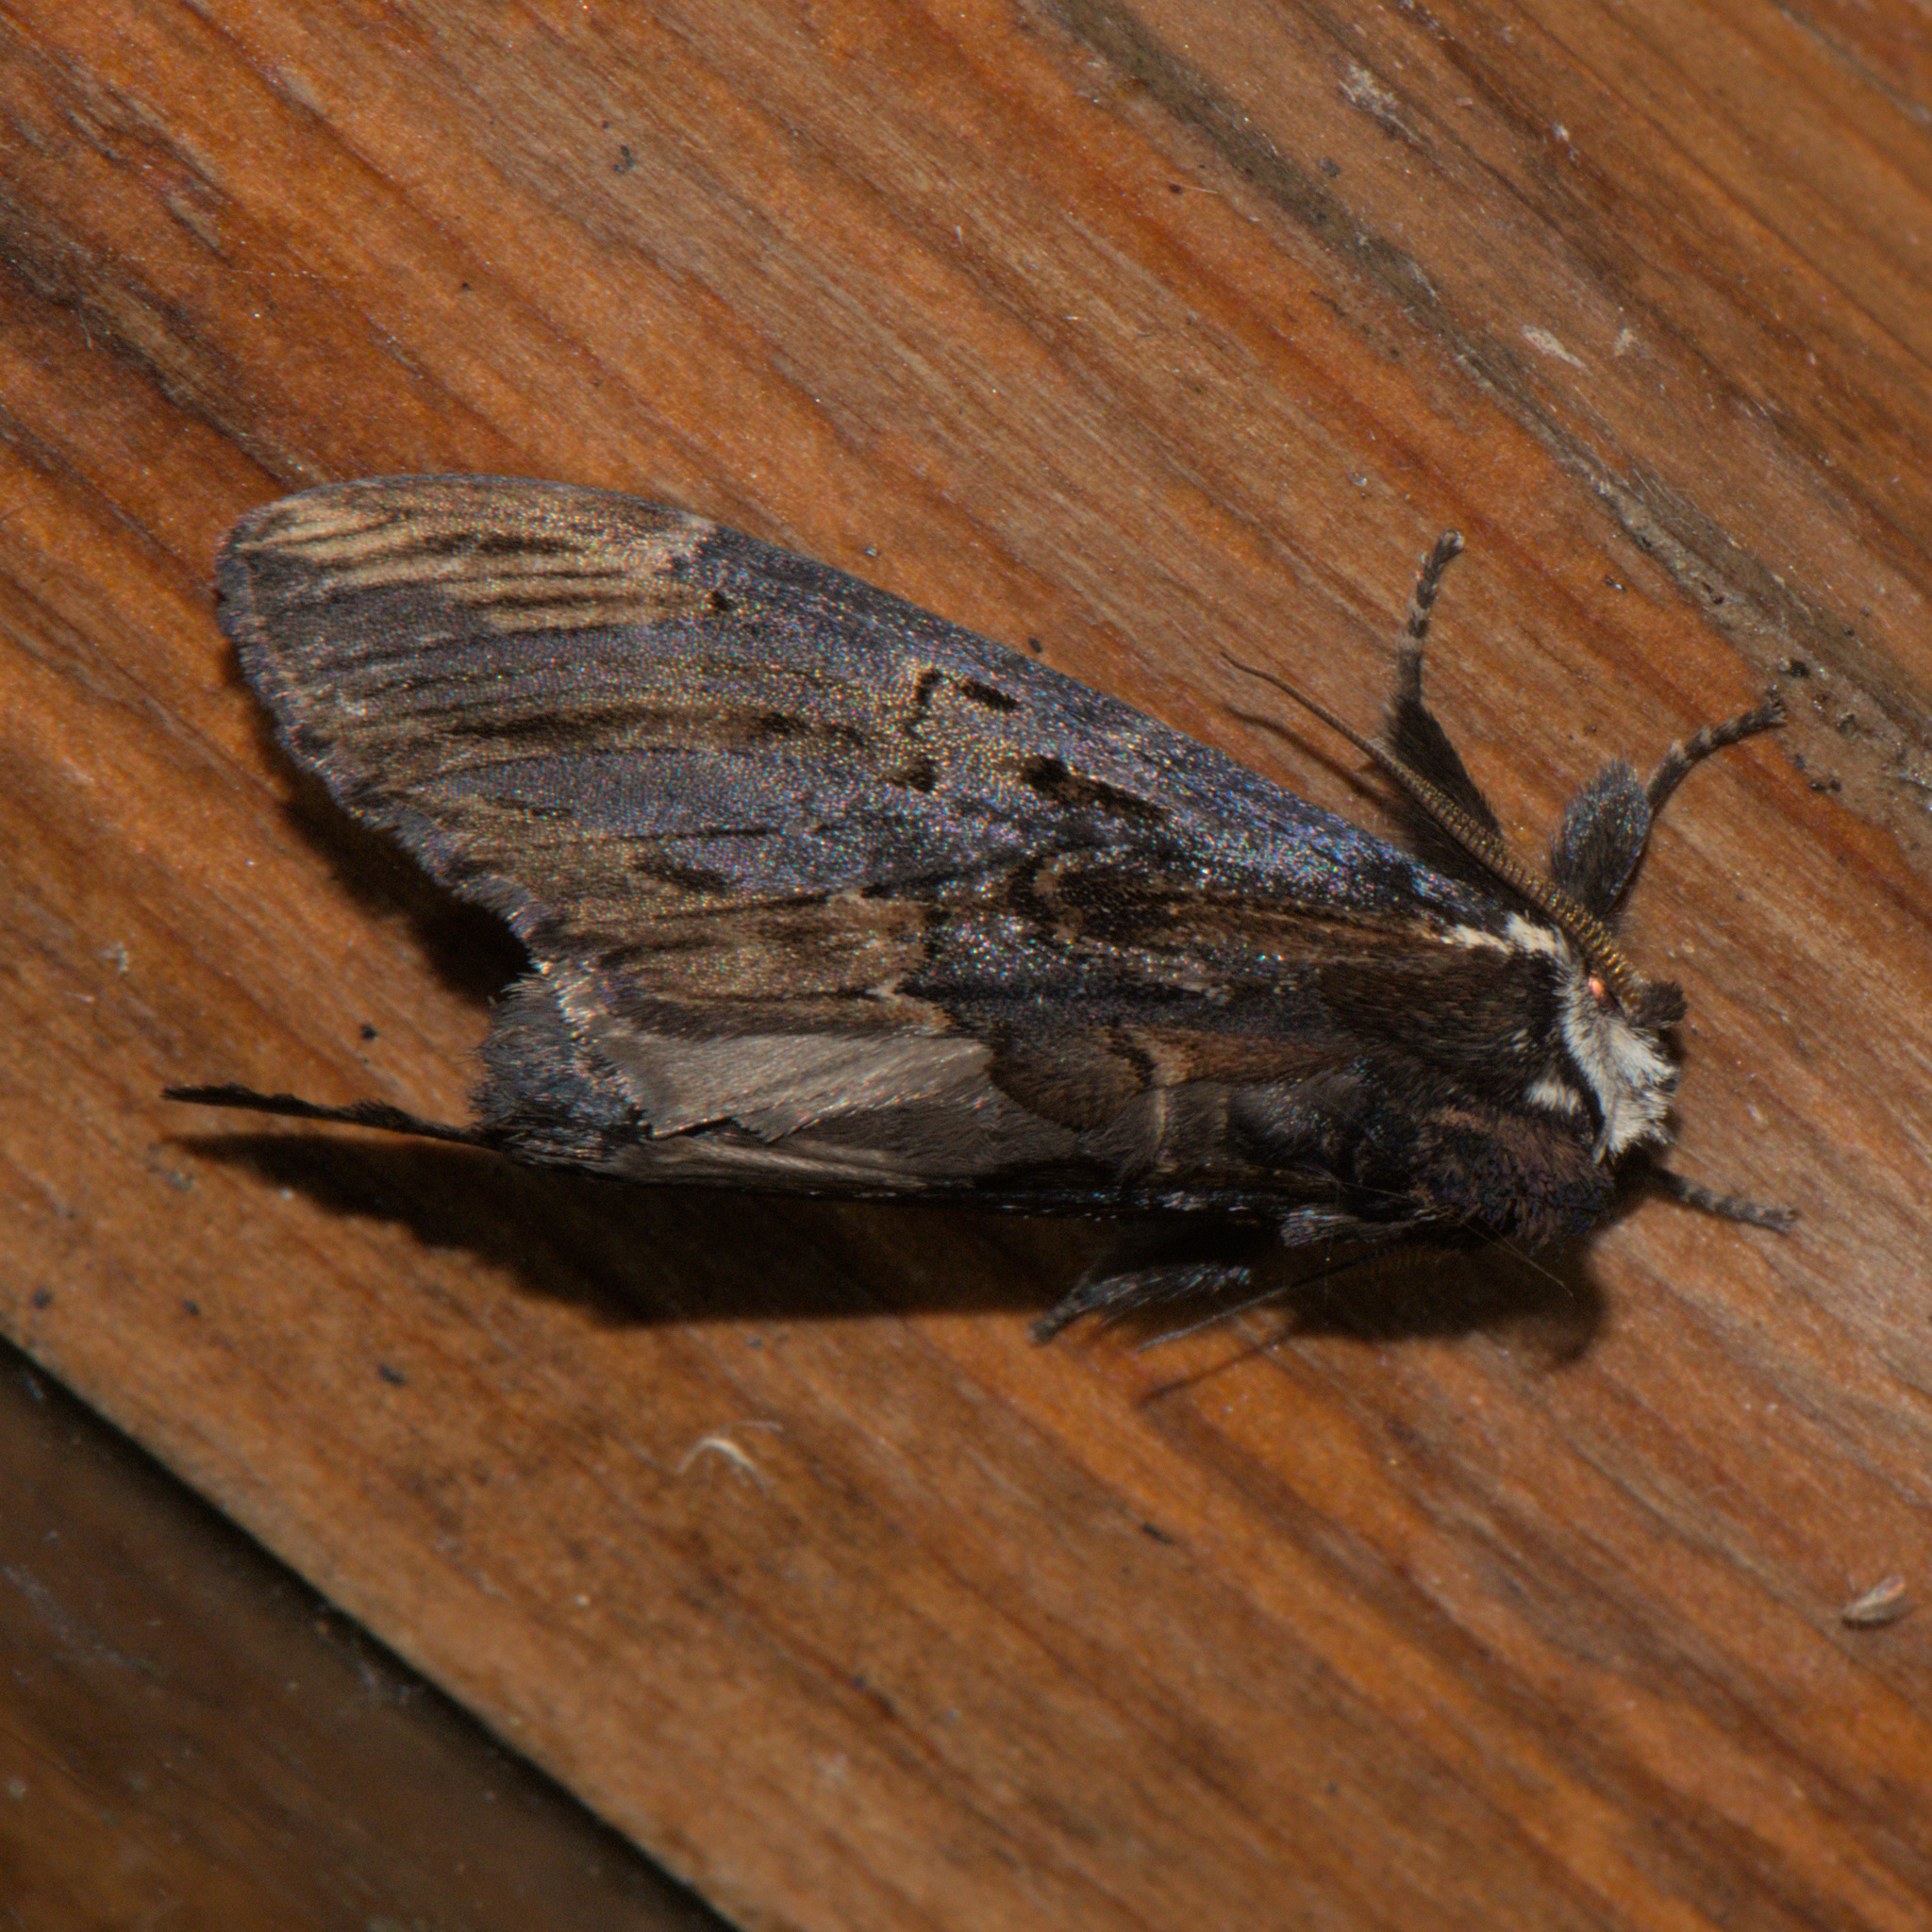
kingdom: Animalia
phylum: Arthropoda
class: Insecta
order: Lepidoptera
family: Notodontidae
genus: Allodonta
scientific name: Allodonta collaris
